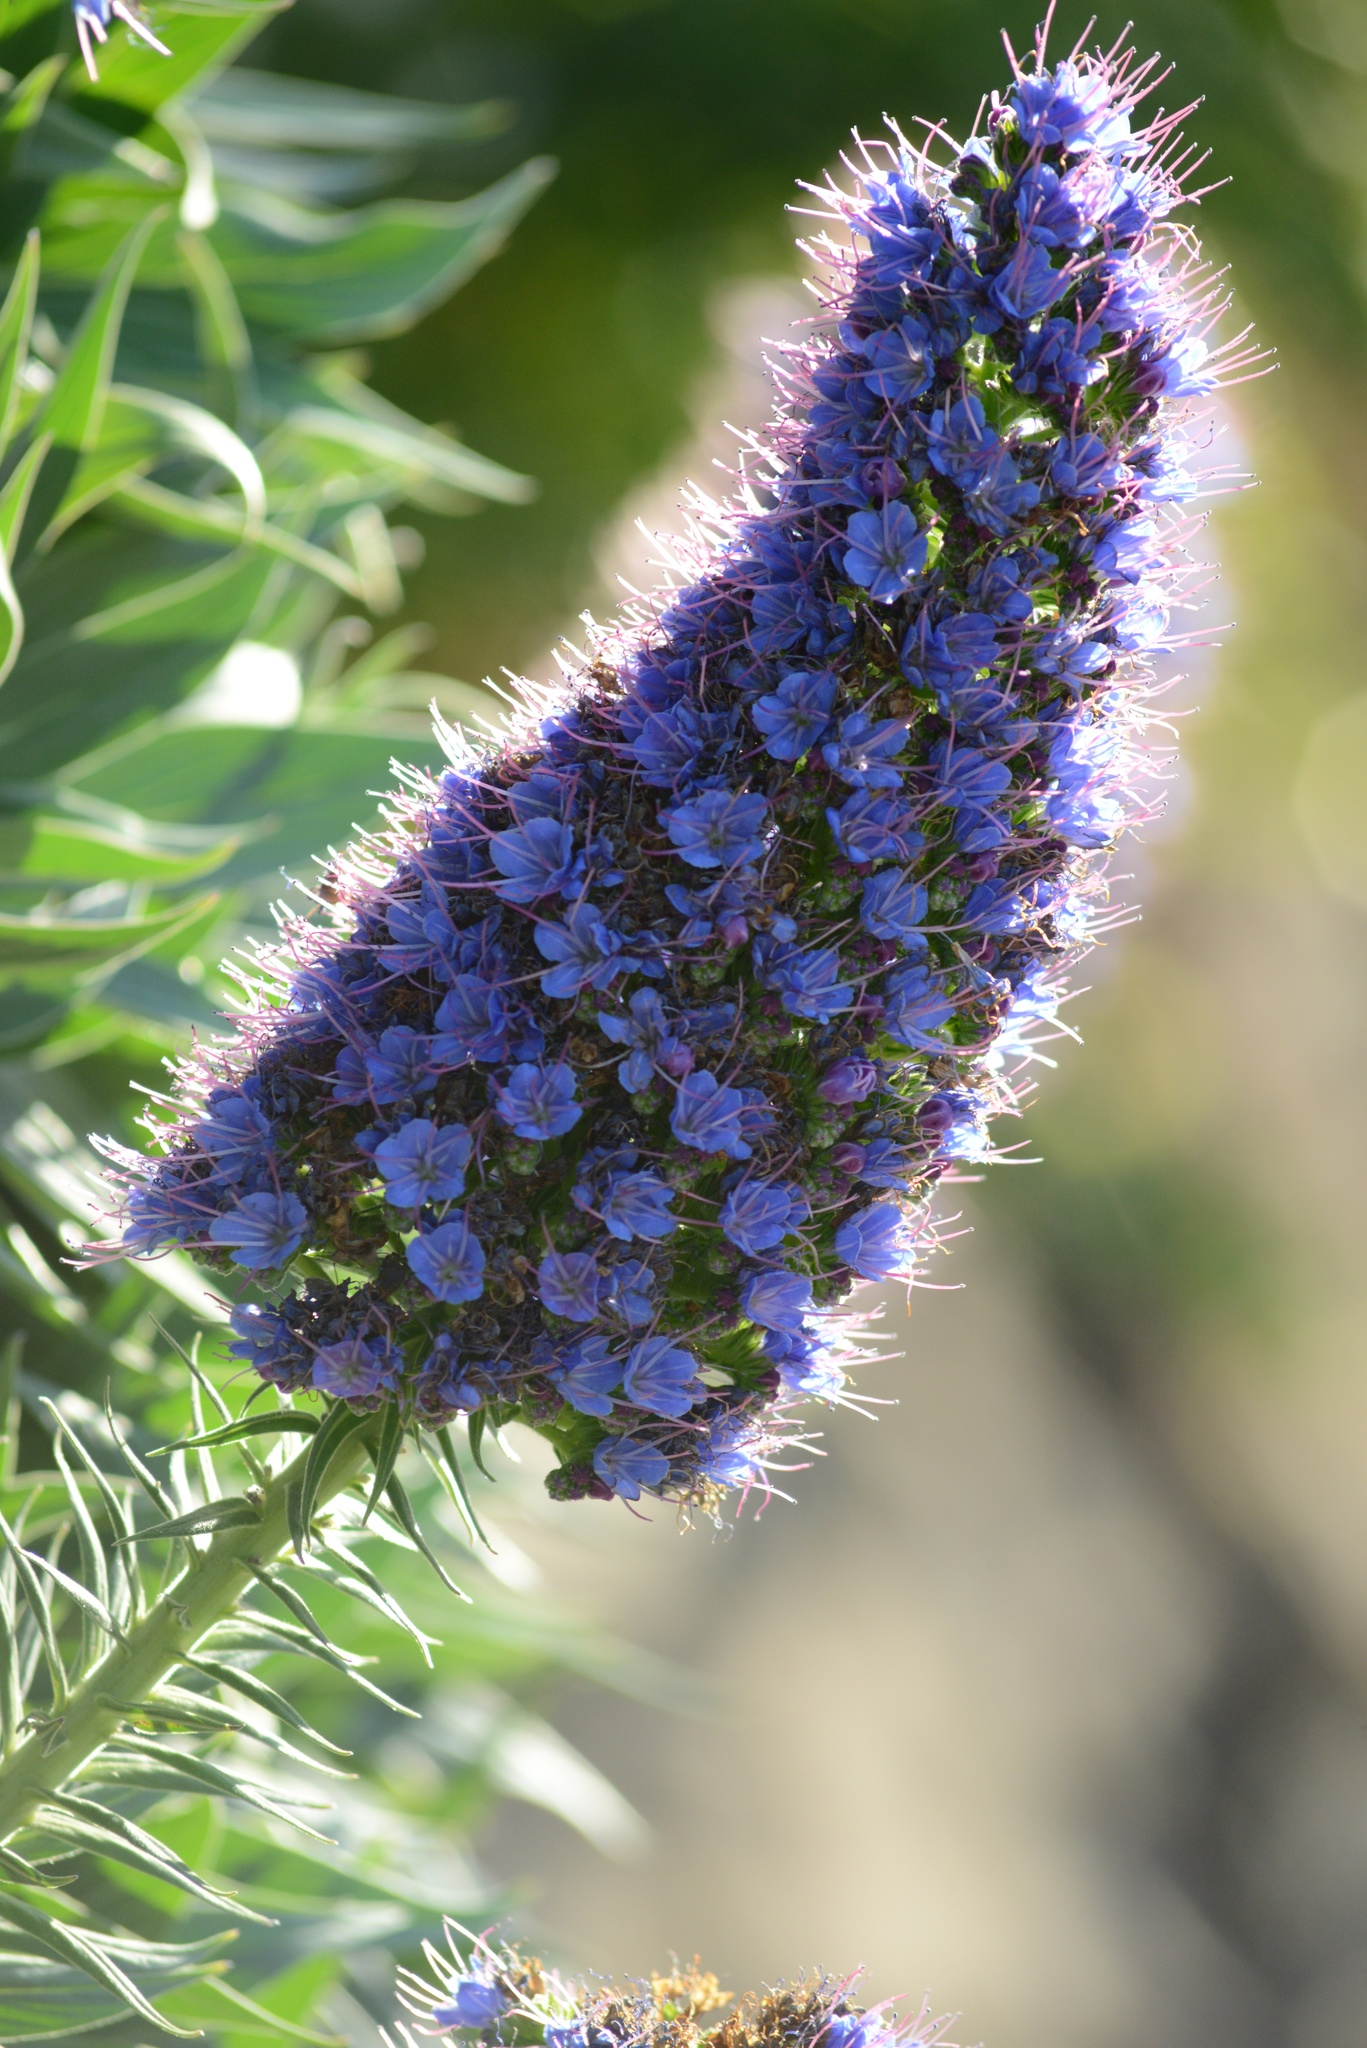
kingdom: Plantae
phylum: Tracheophyta
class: Magnoliopsida
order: Boraginales
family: Boraginaceae
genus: Echium
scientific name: Echium candicans
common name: Pride of madeira
